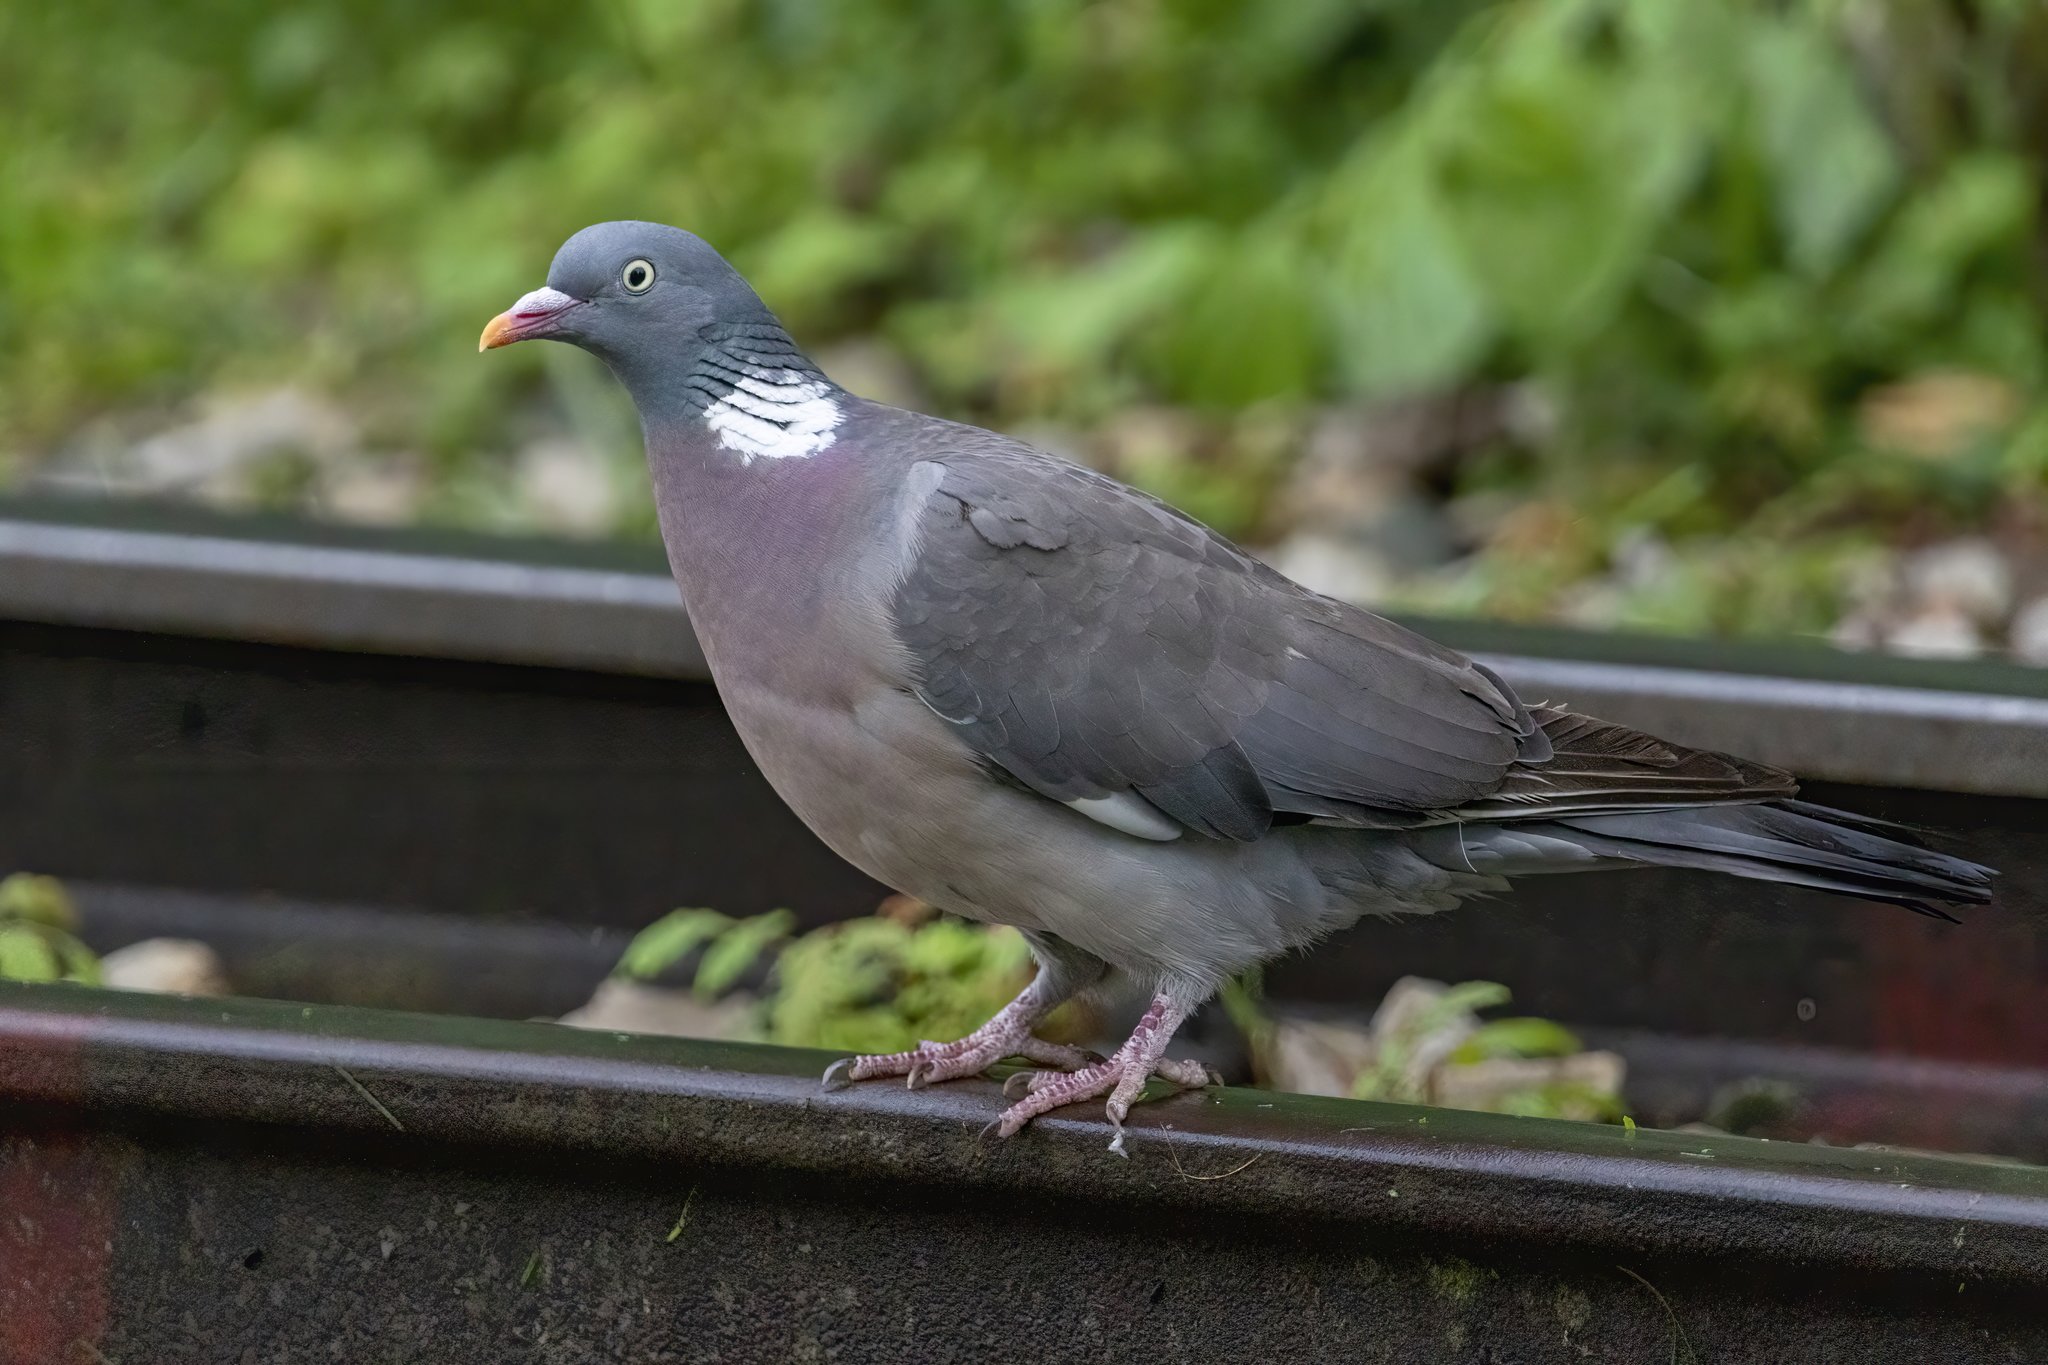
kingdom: Animalia
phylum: Chordata
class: Aves
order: Columbiformes
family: Columbidae
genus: Columba
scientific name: Columba palumbus
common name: Common wood pigeon
